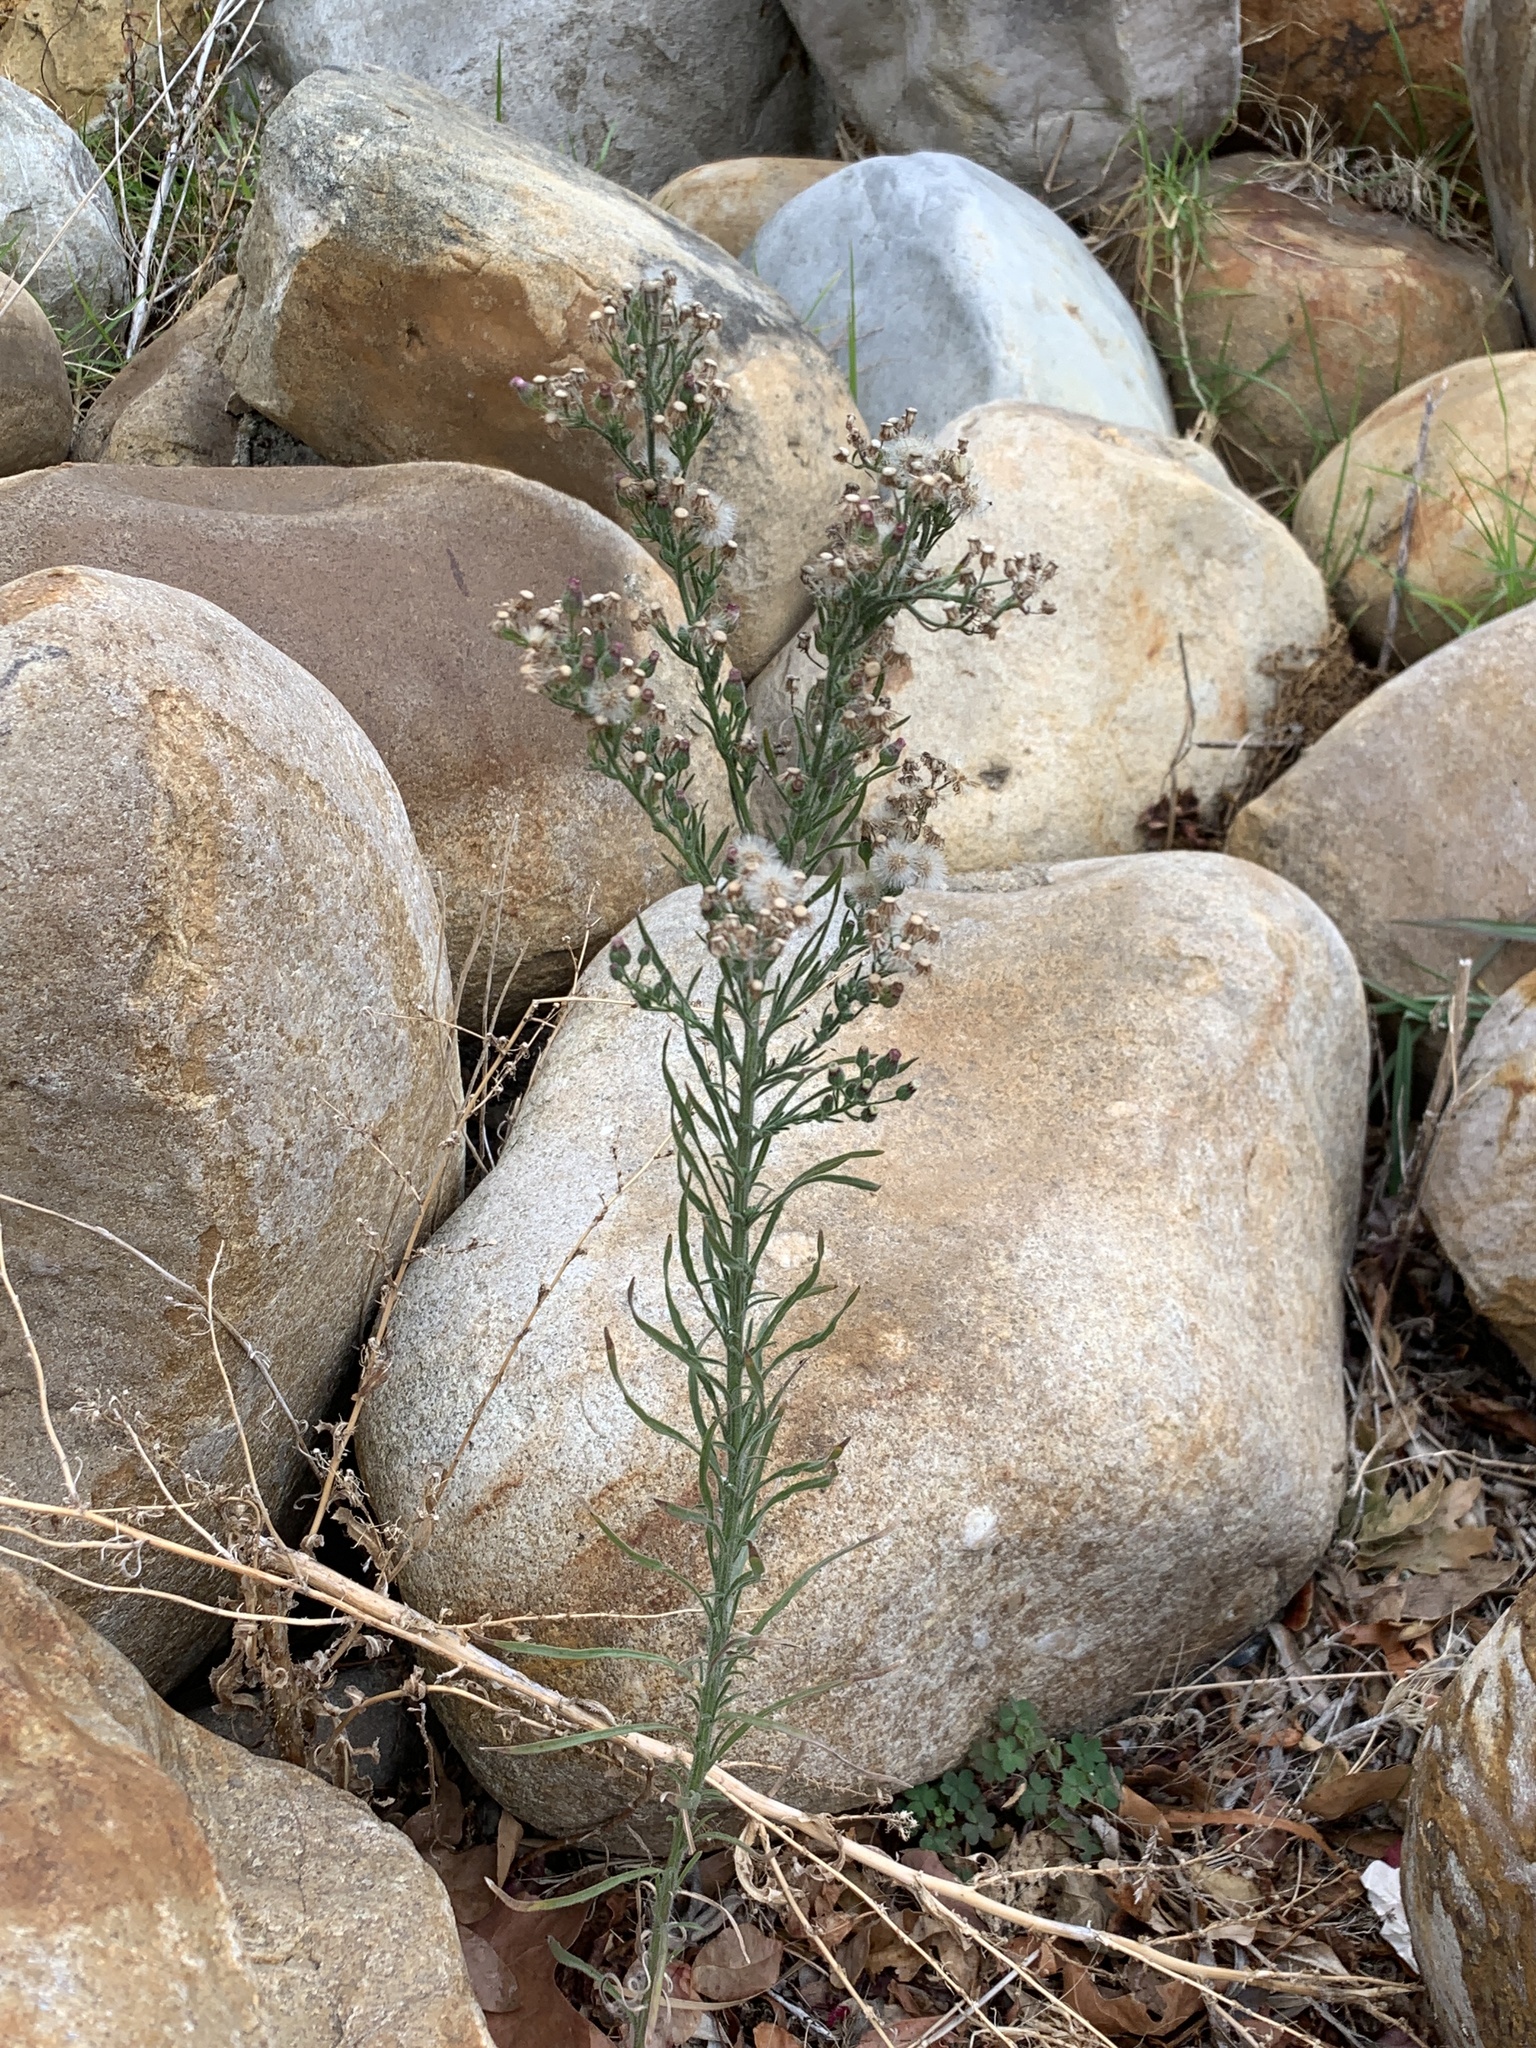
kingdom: Plantae
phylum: Tracheophyta
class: Magnoliopsida
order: Asterales
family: Asteraceae
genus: Erigeron
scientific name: Erigeron bonariensis
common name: Argentine fleabane
